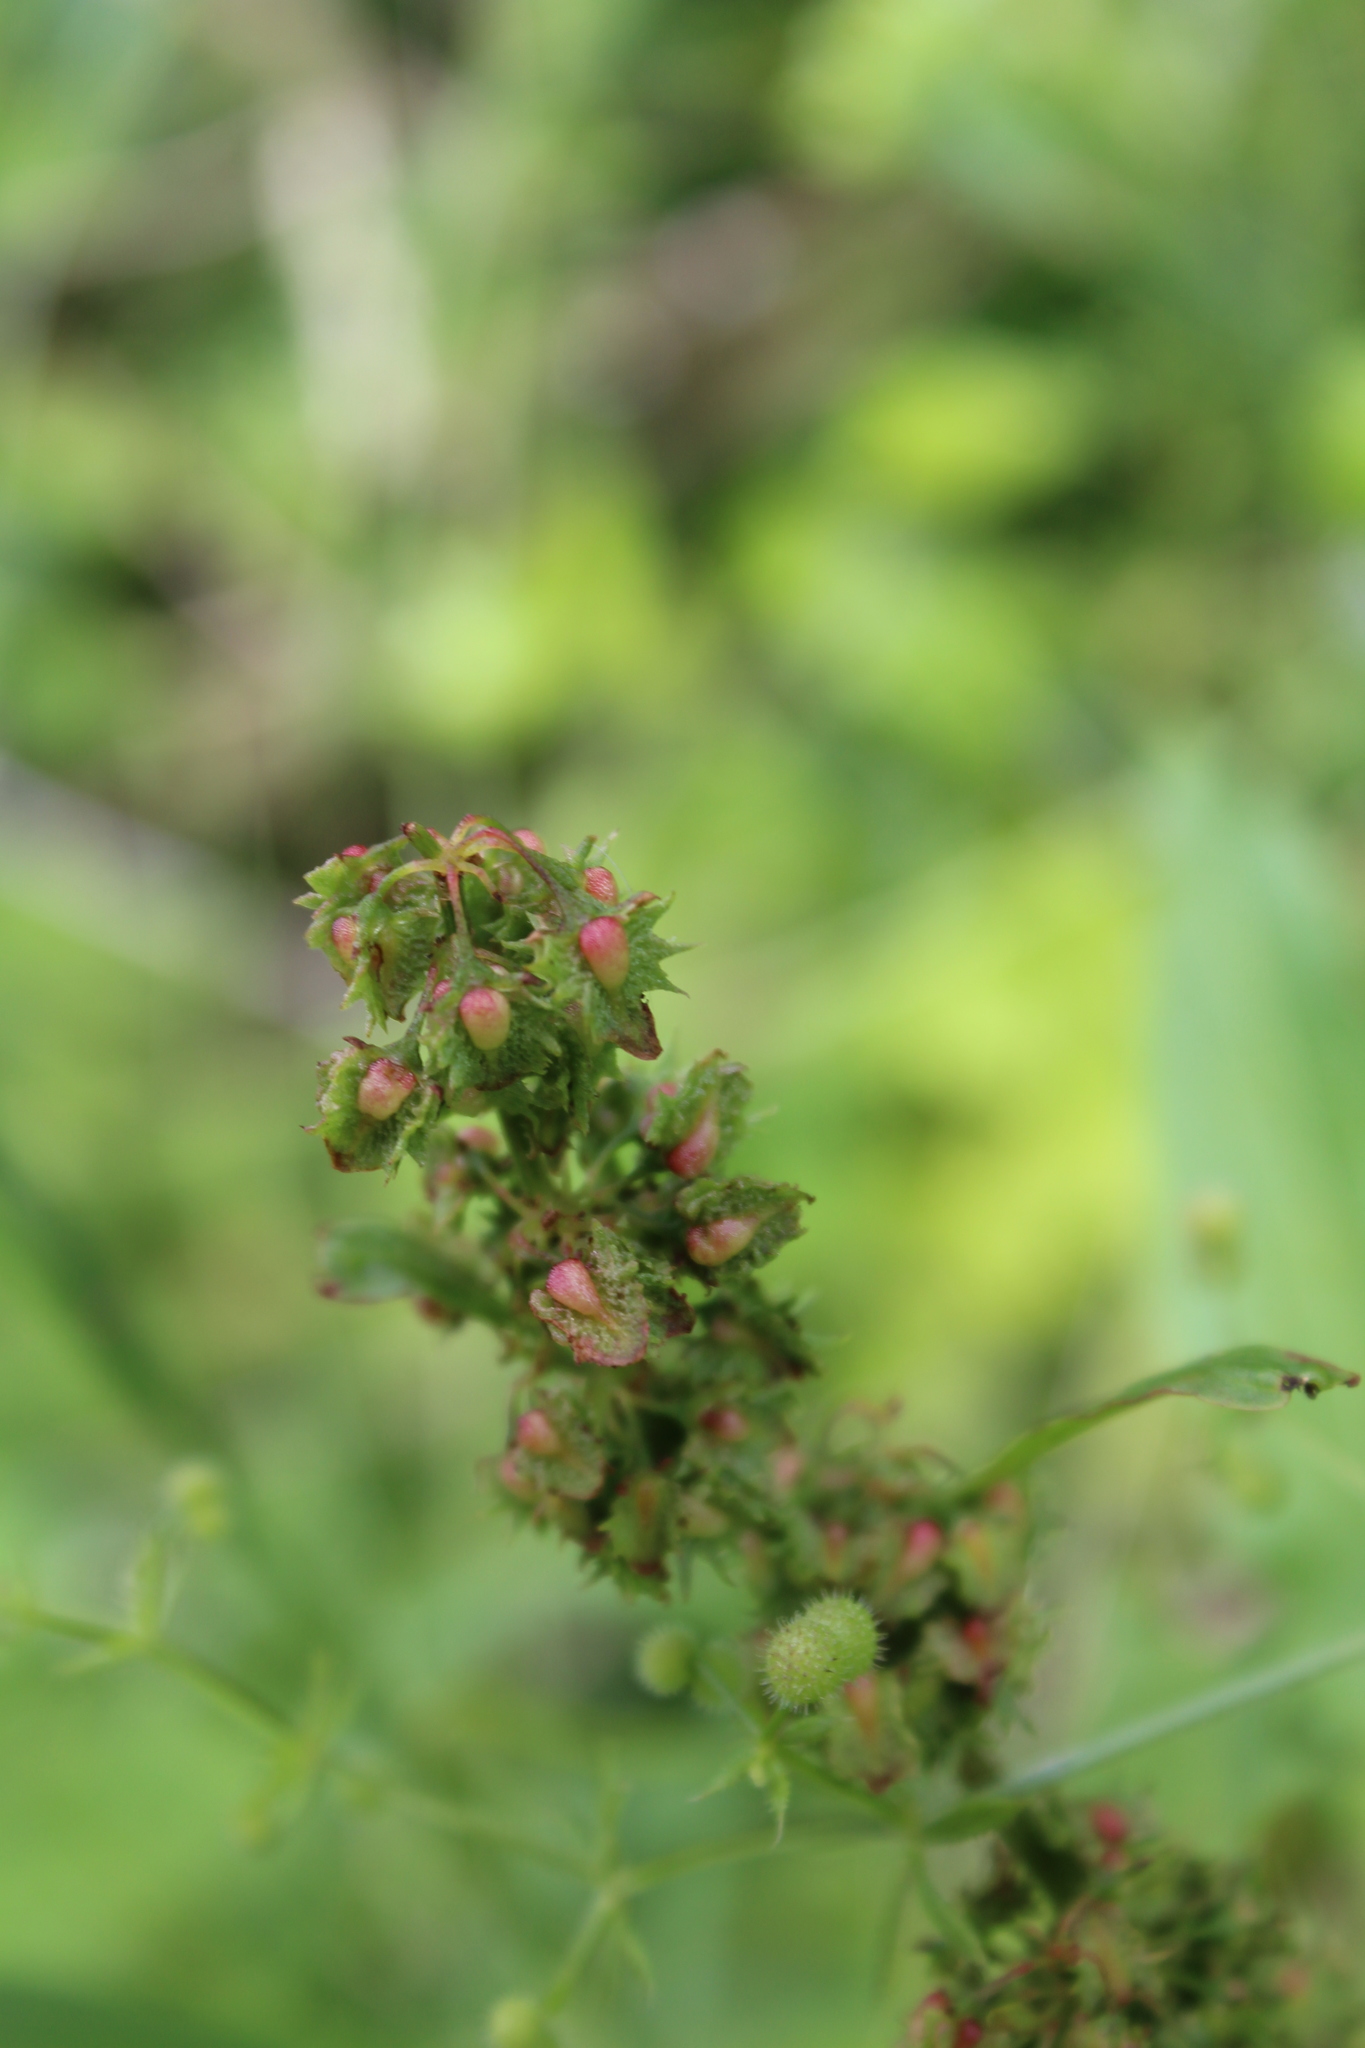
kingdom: Plantae
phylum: Tracheophyta
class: Magnoliopsida
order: Caryophyllales
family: Polygonaceae
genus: Rumex
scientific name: Rumex obtusifolius
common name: Bitter dock
